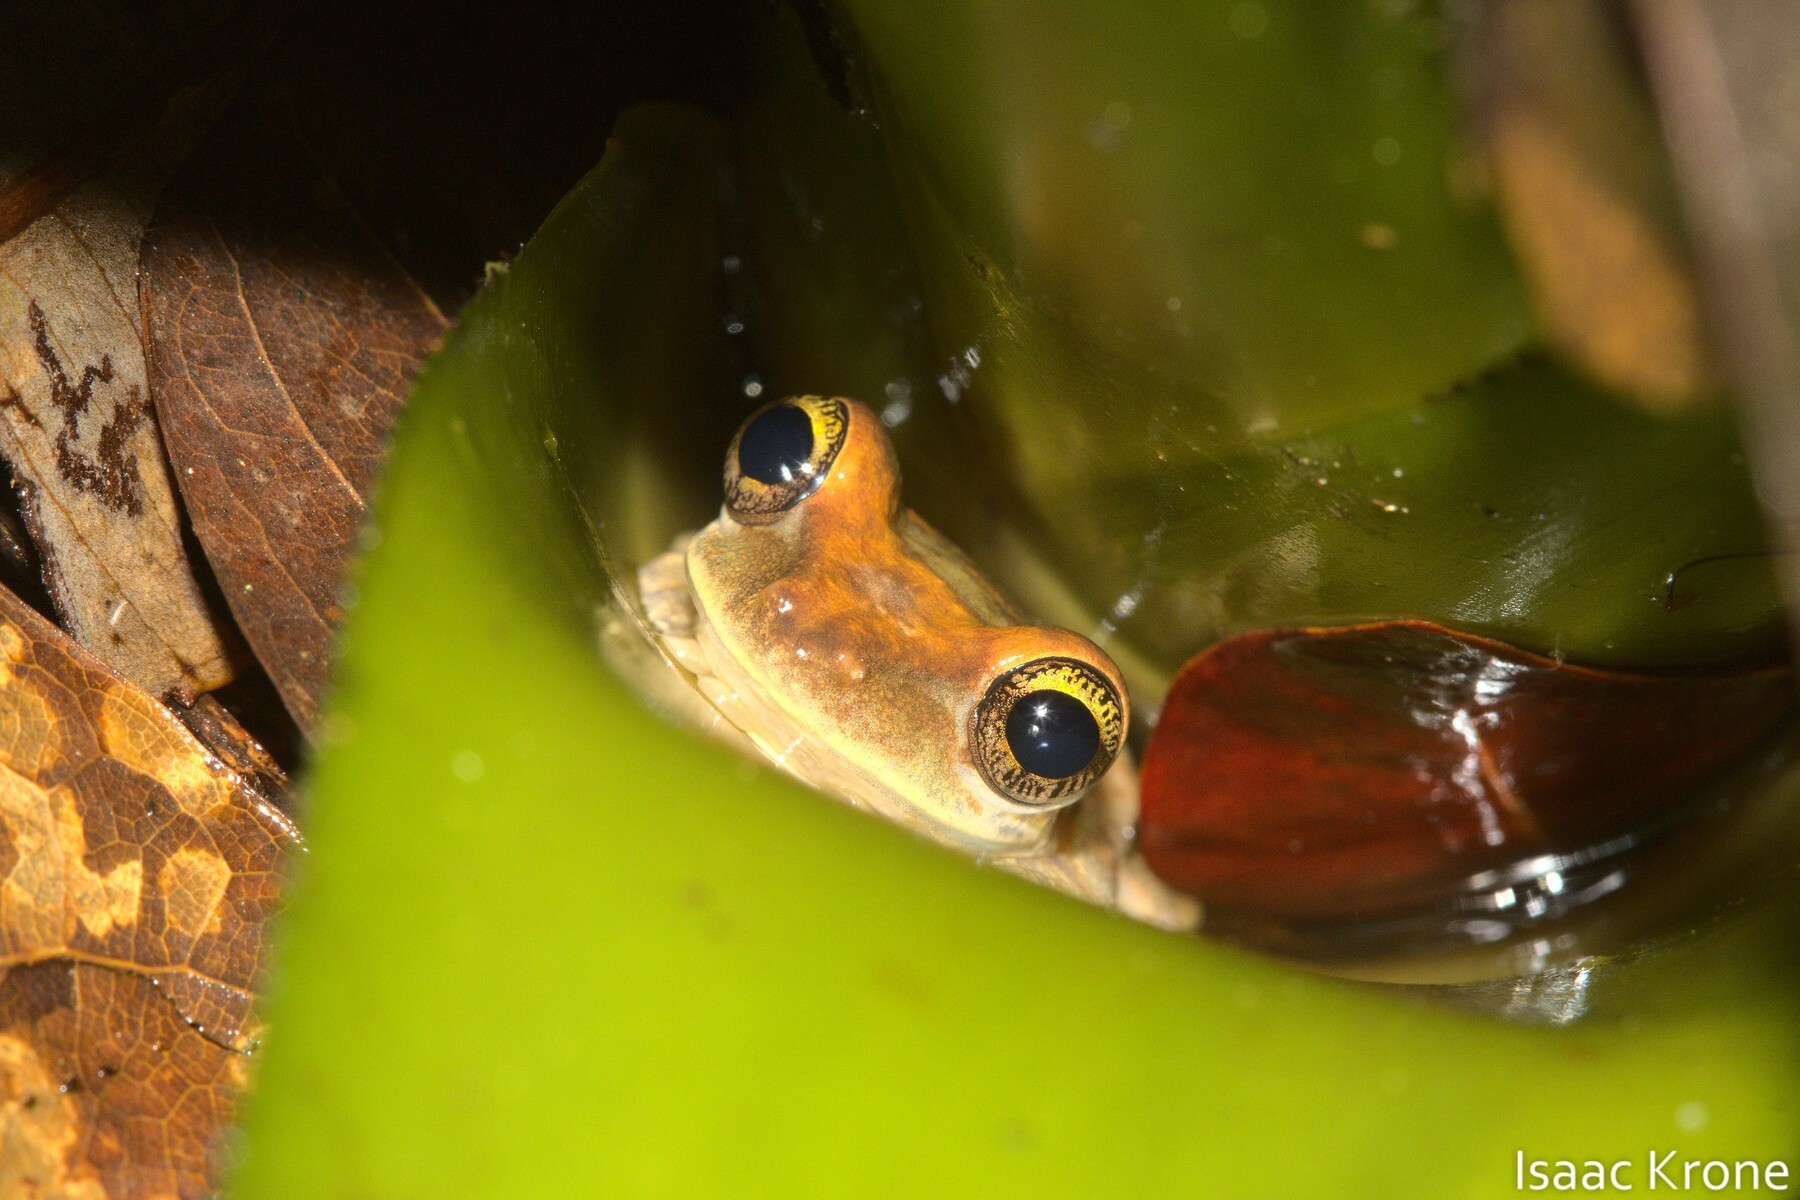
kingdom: Animalia
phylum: Chordata
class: Amphibia
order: Anura
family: Hylidae
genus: Osteocephalus
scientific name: Osteocephalus deridens
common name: Funny slender-legged treefrog
